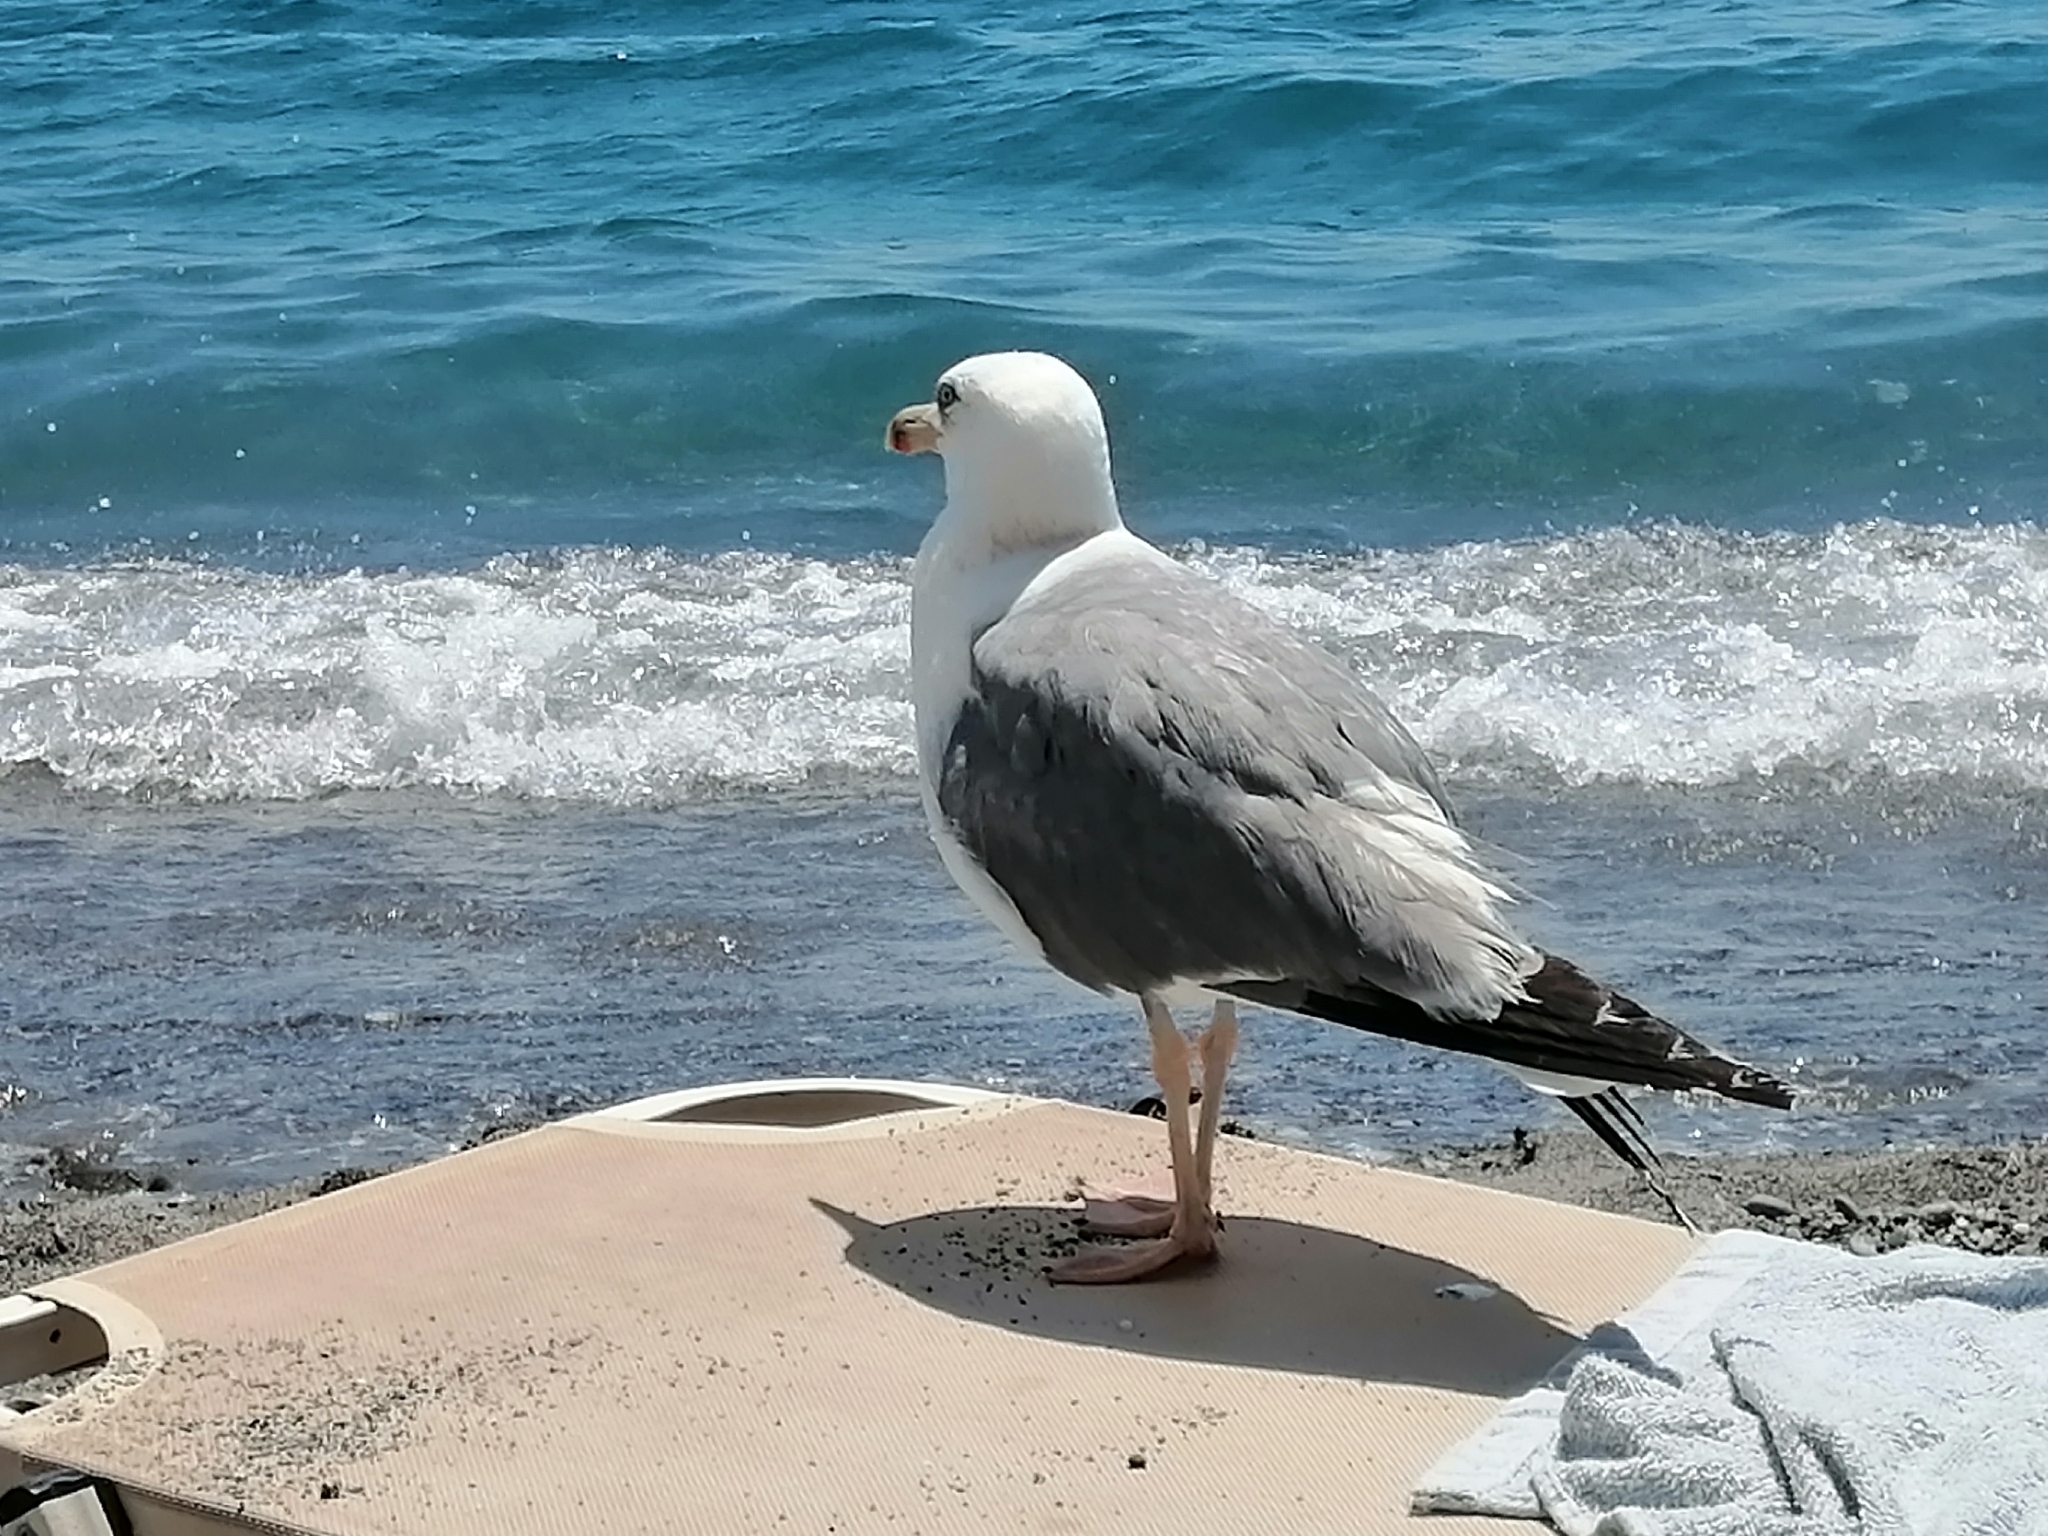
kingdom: Animalia
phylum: Chordata
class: Aves
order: Charadriiformes
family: Laridae
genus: Larus
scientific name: Larus michahellis
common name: Yellow-legged gull
